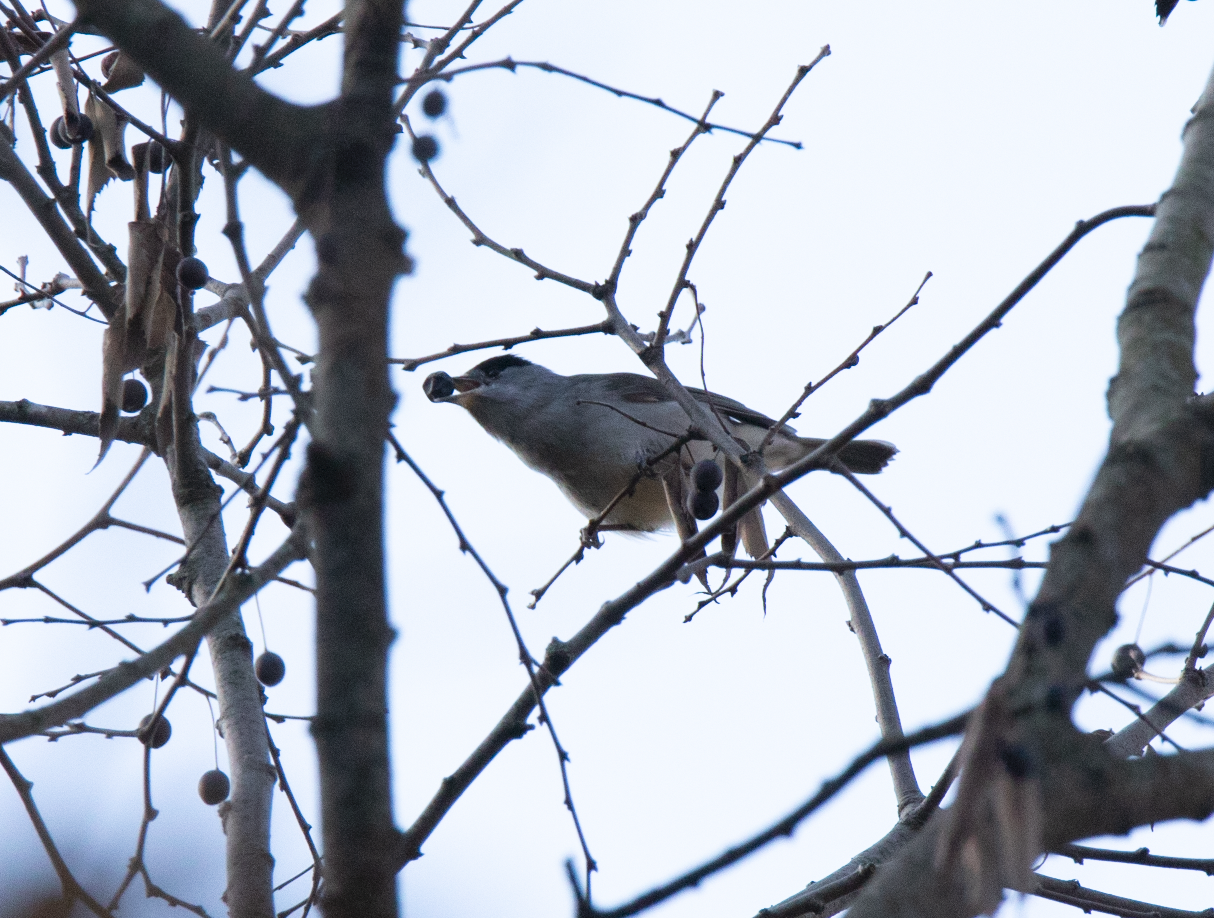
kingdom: Animalia
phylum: Chordata
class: Aves
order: Passeriformes
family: Sylviidae
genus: Sylvia
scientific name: Sylvia atricapilla
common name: Eurasian blackcap
